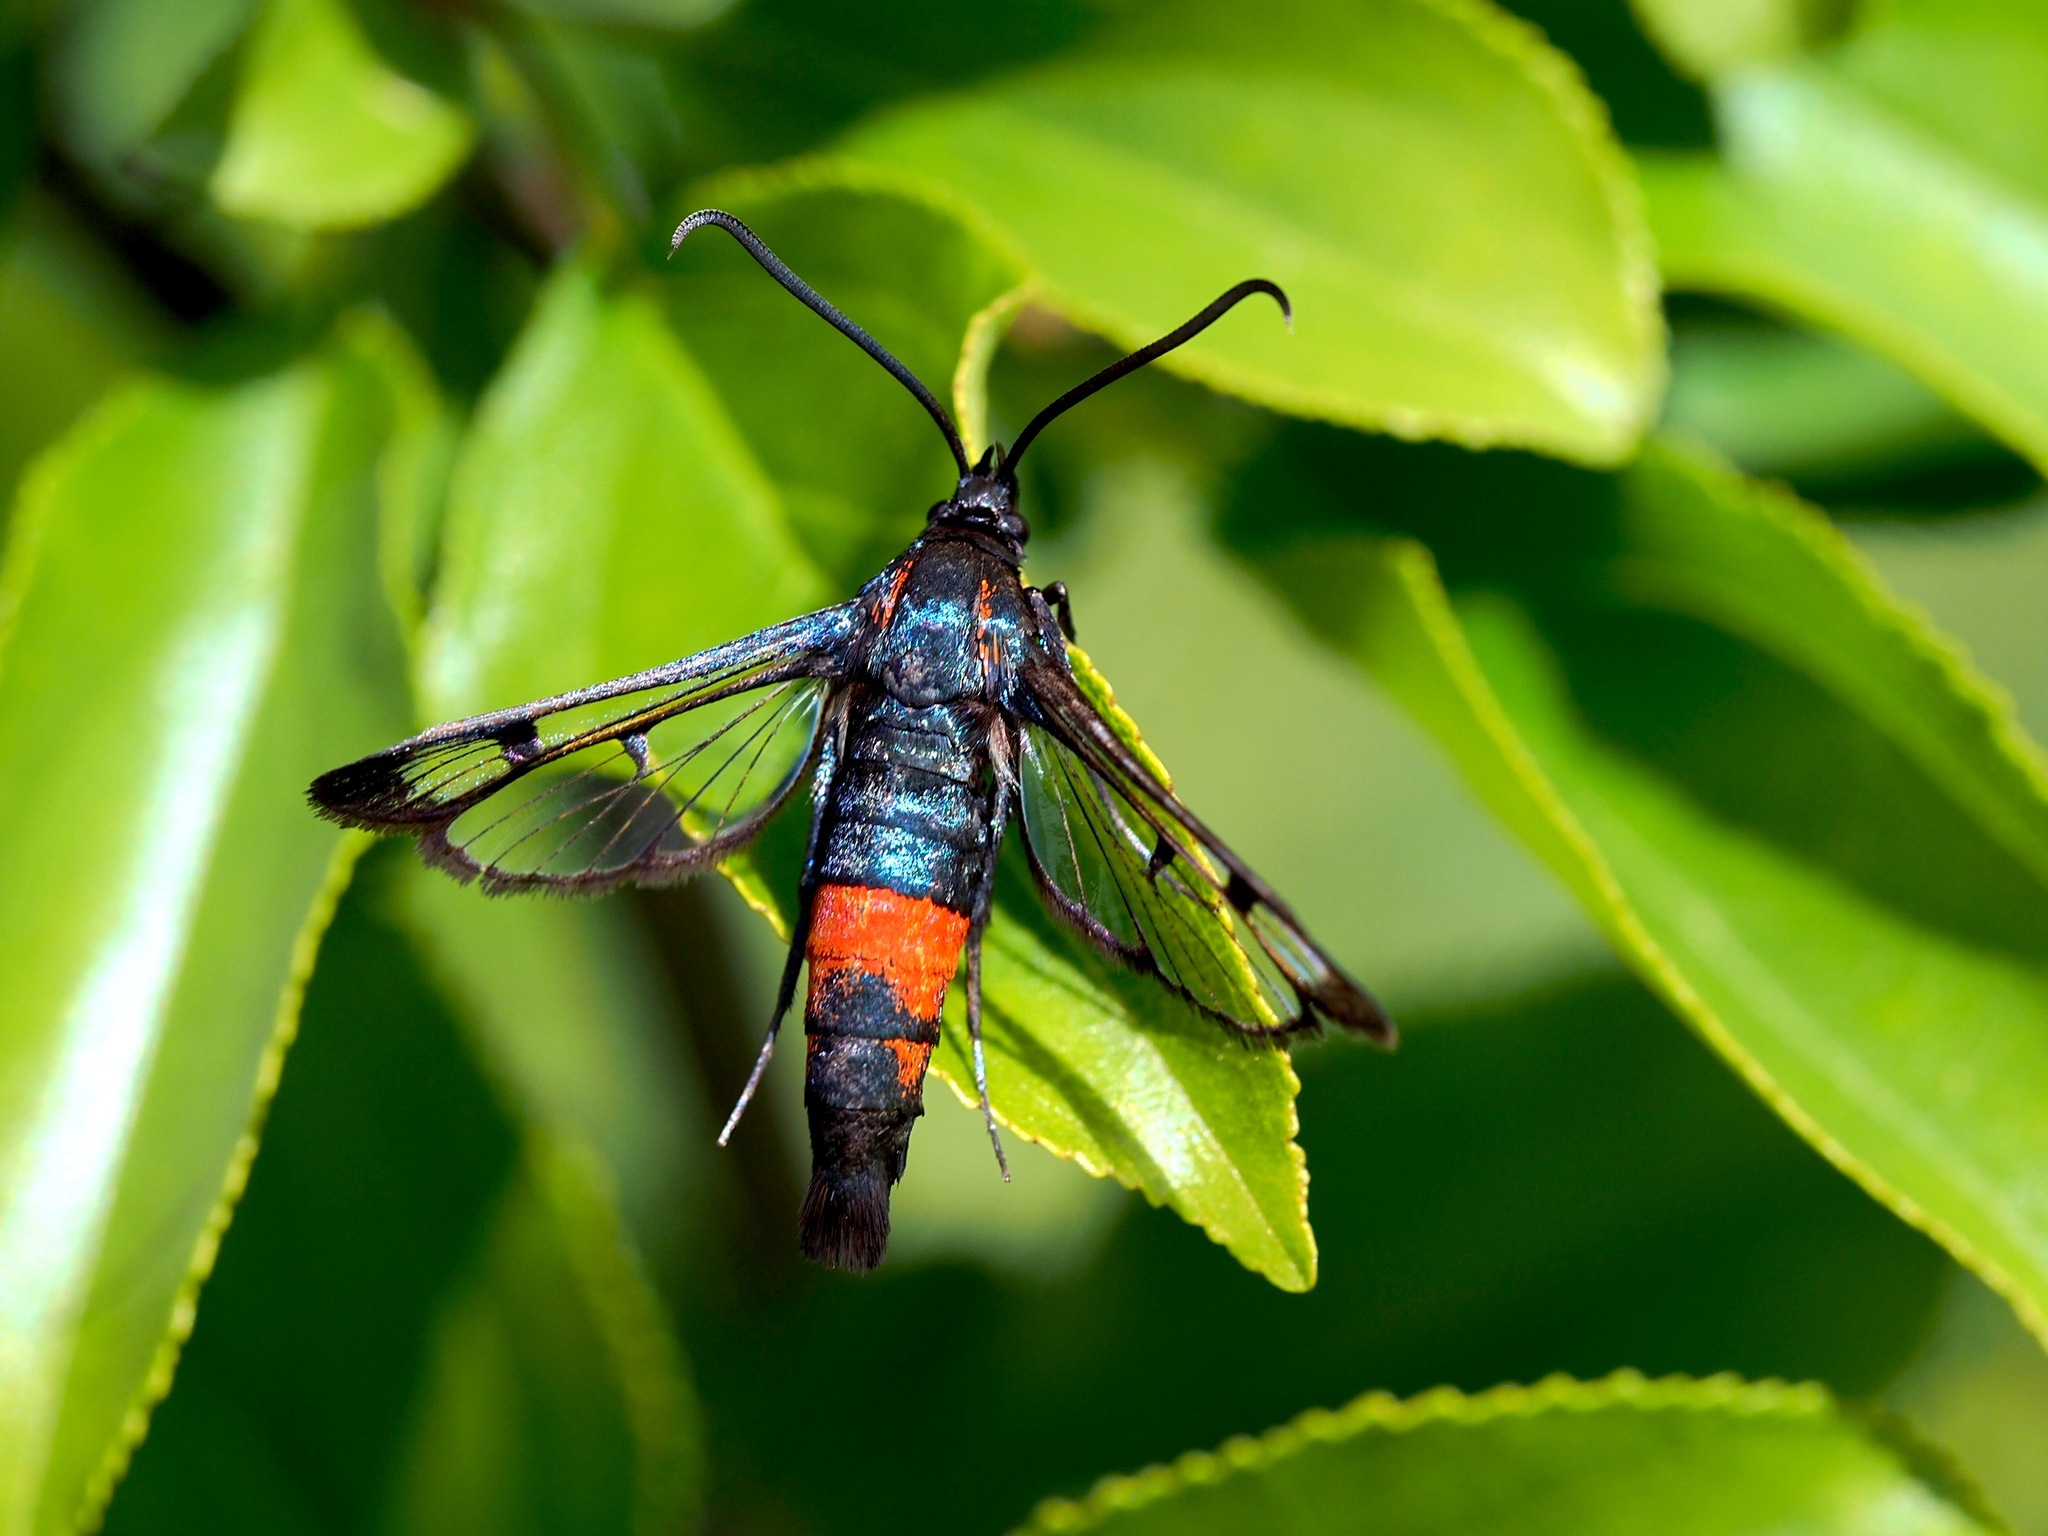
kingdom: Animalia
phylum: Arthropoda
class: Insecta
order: Lepidoptera
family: Sesiidae
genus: Synanthedon
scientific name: Synanthedon stomoxiformis
